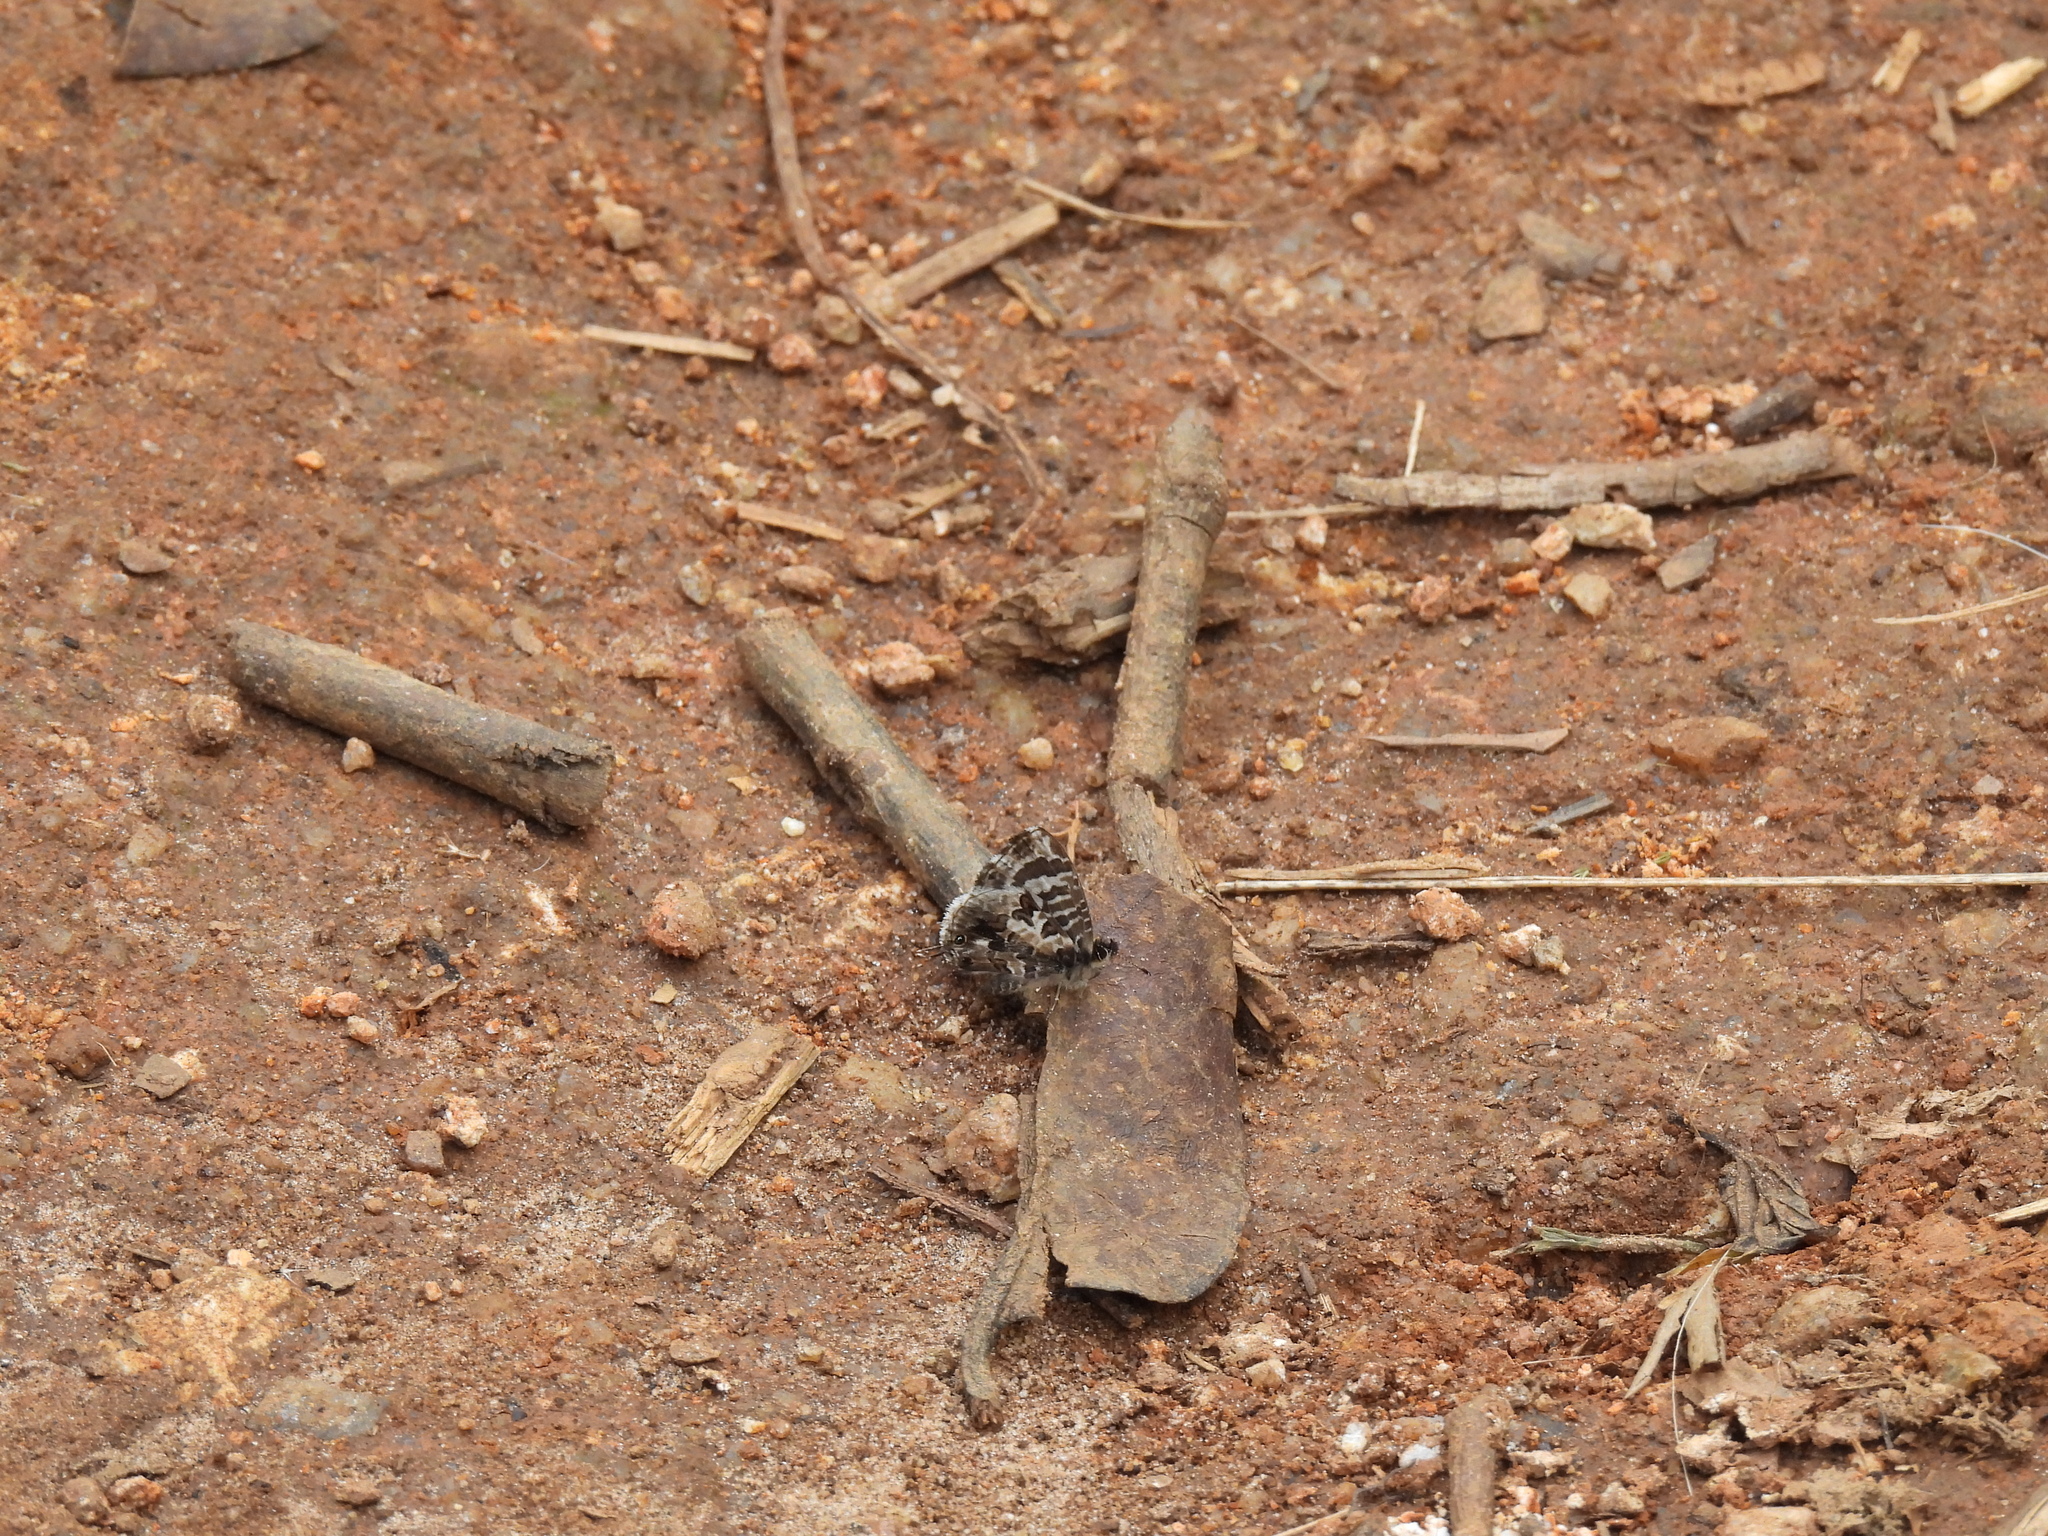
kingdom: Animalia
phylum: Arthropoda
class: Insecta
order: Lepidoptera
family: Lycaenidae
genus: Cacyreus
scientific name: Cacyreus lingeus
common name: Bush bronze
